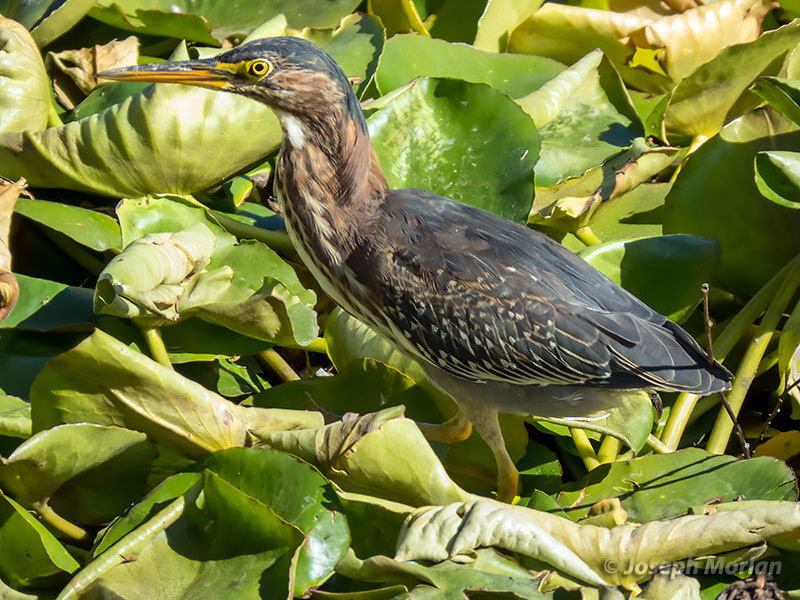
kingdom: Animalia
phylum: Chordata
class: Aves
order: Pelecaniformes
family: Ardeidae
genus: Butorides
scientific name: Butorides virescens
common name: Green heron
